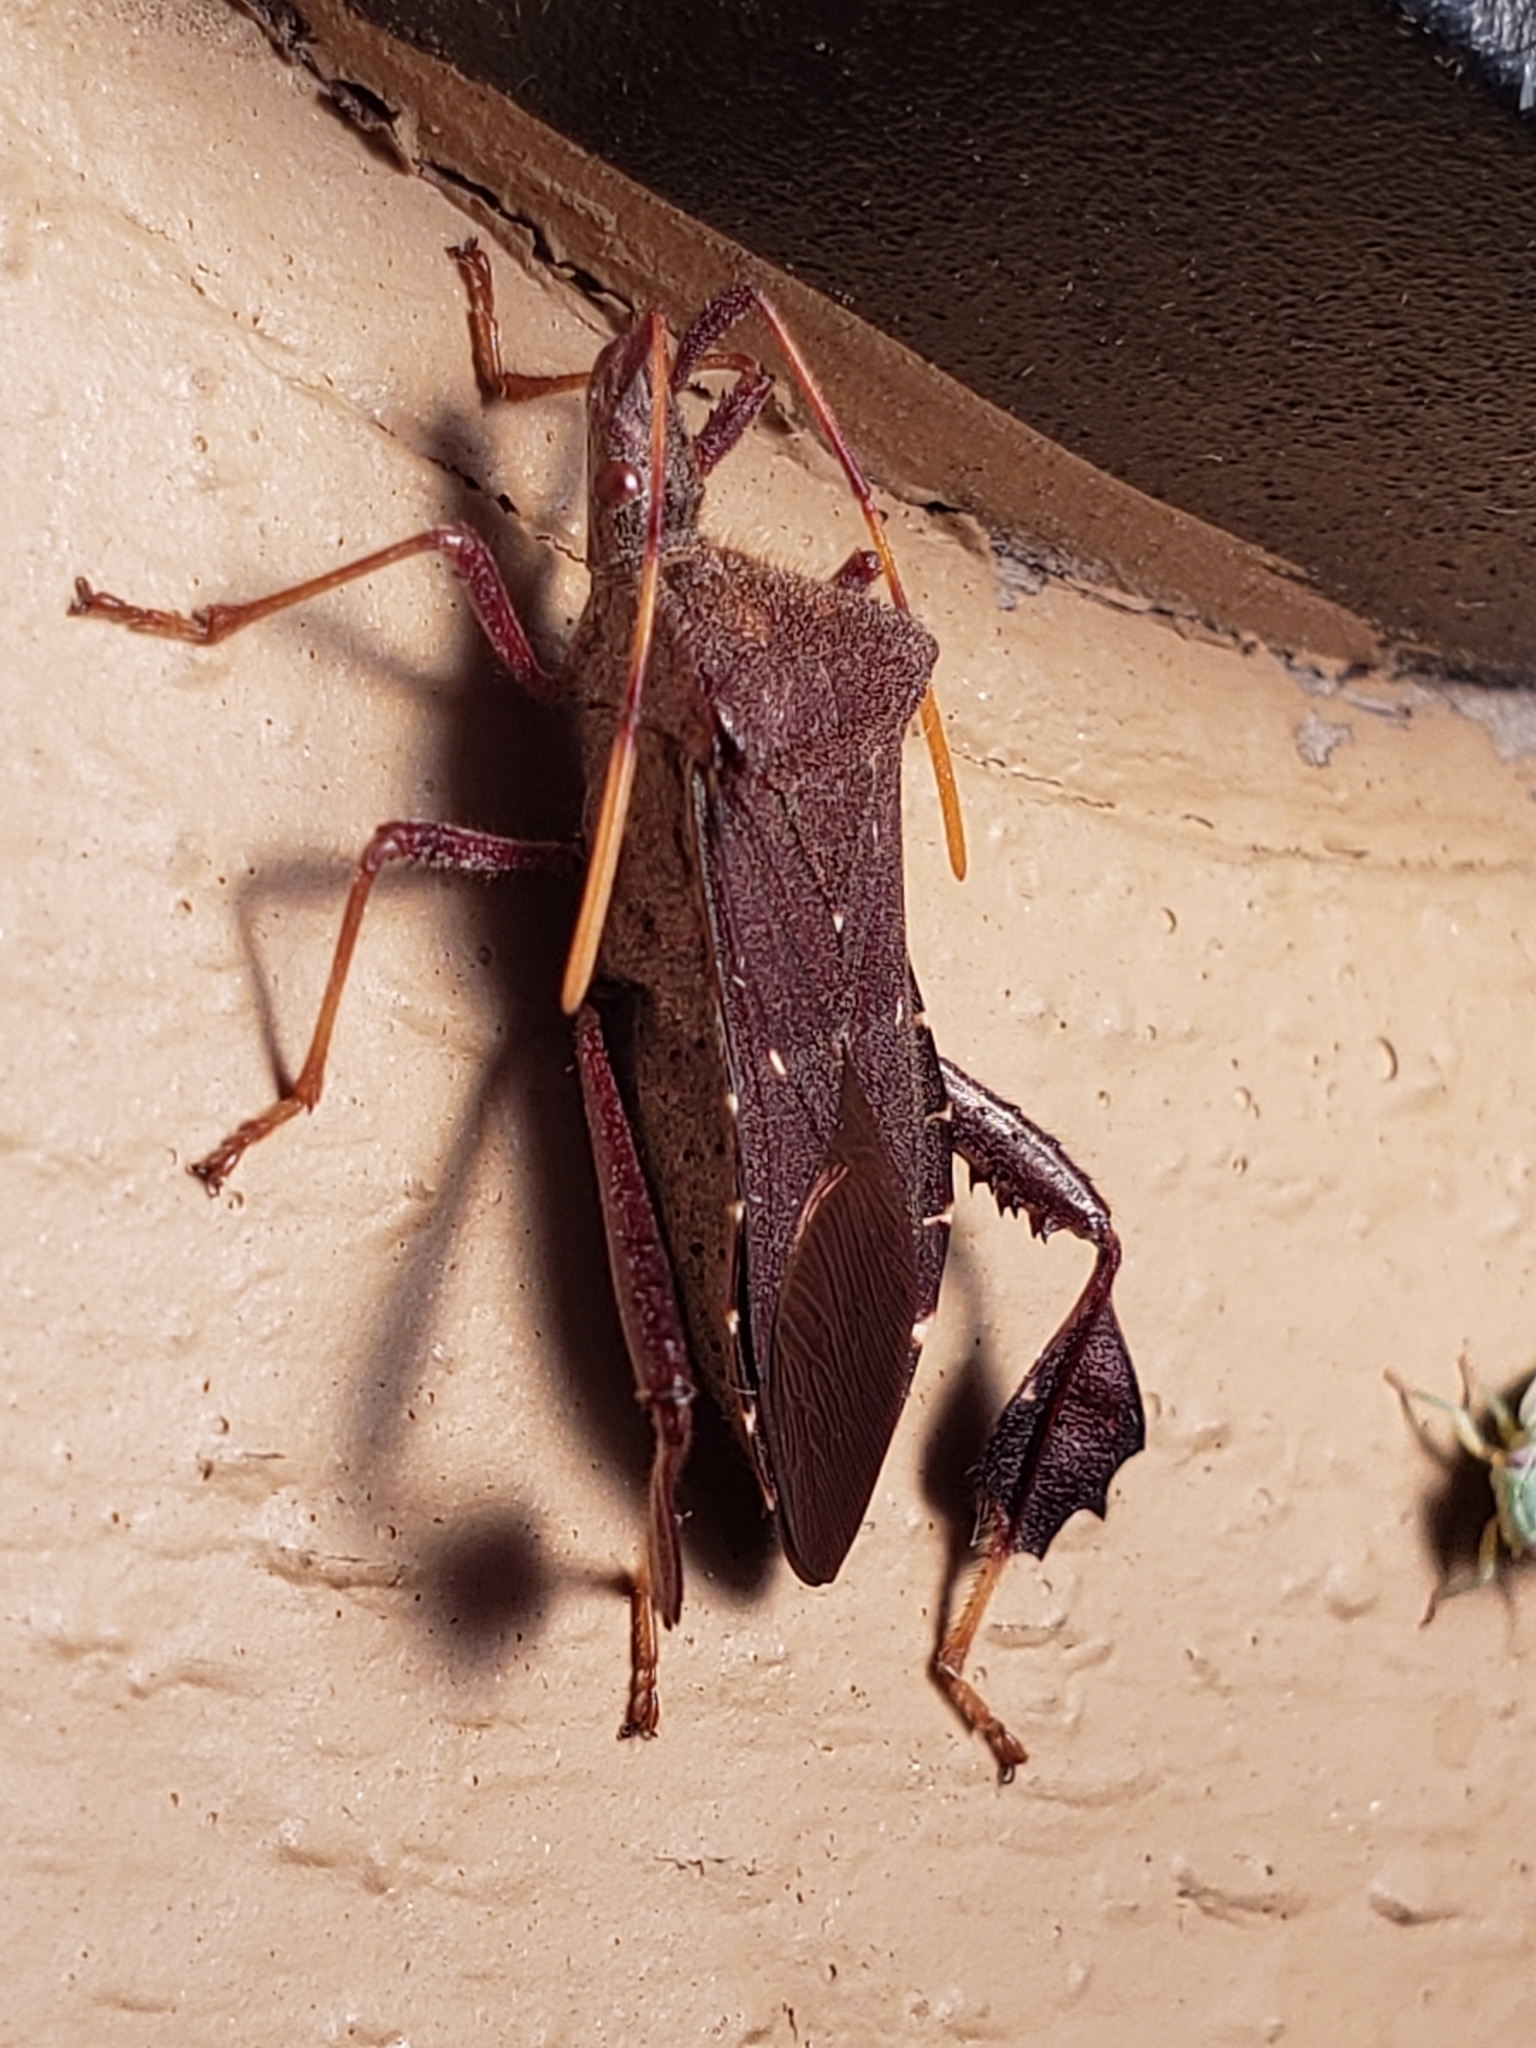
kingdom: Animalia
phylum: Arthropoda
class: Insecta
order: Hemiptera
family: Coreidae
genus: Leptoglossus
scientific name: Leptoglossus oppositus
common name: Northern leaf-footed bug
